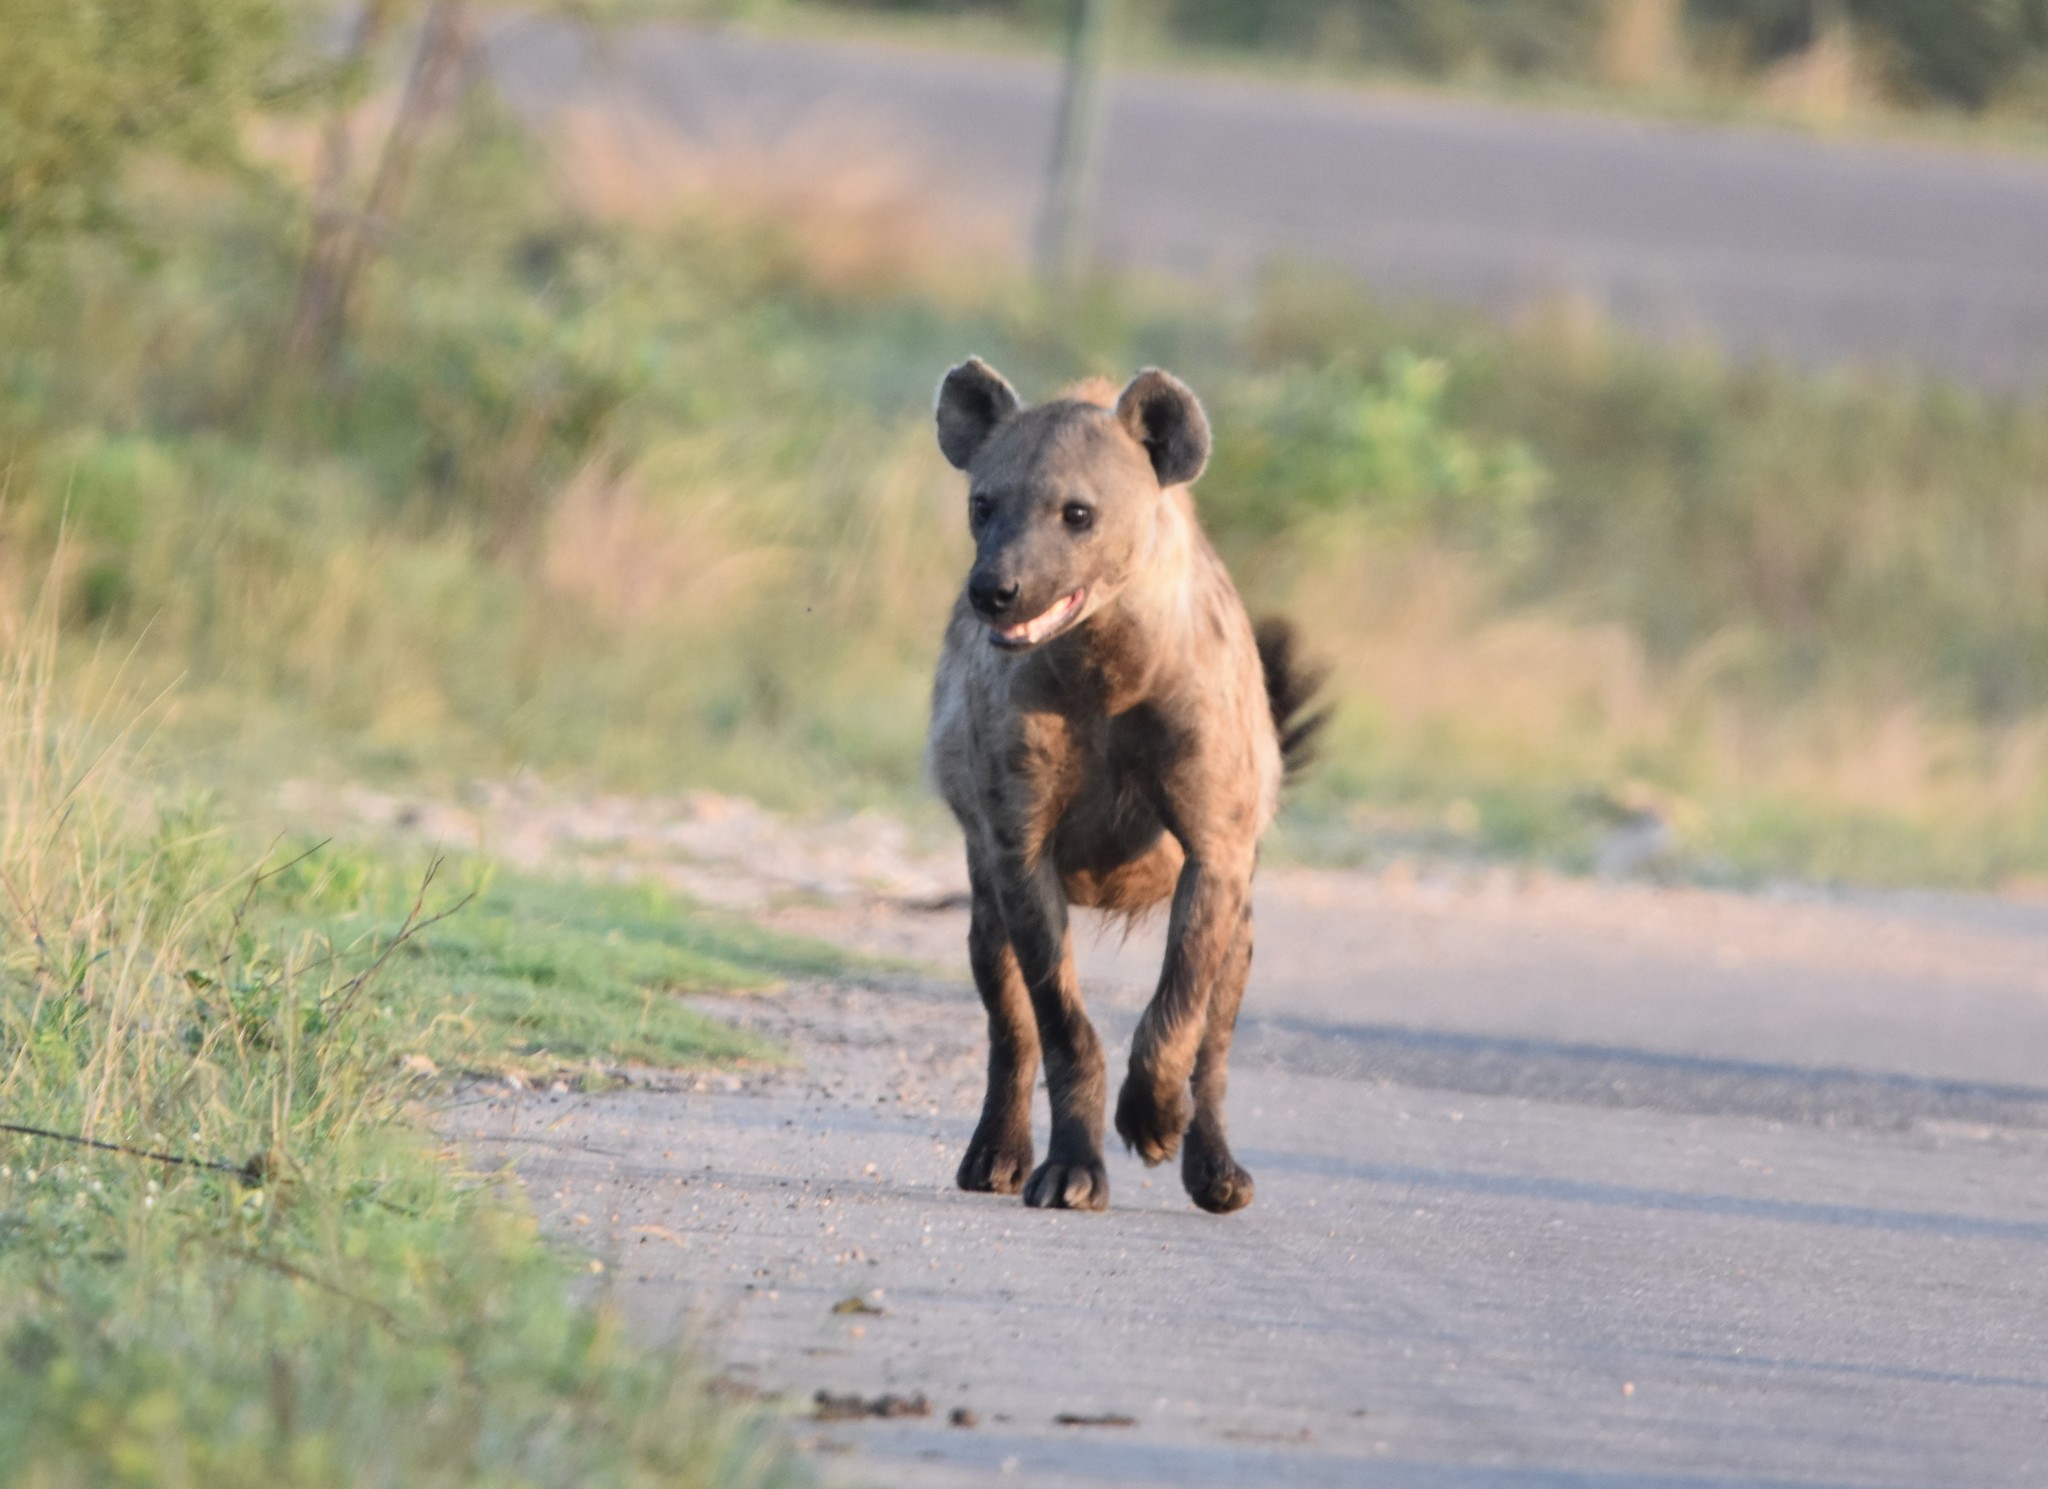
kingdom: Animalia
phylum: Chordata
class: Mammalia
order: Carnivora
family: Hyaenidae
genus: Crocuta
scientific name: Crocuta crocuta
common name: Spotted hyaena
